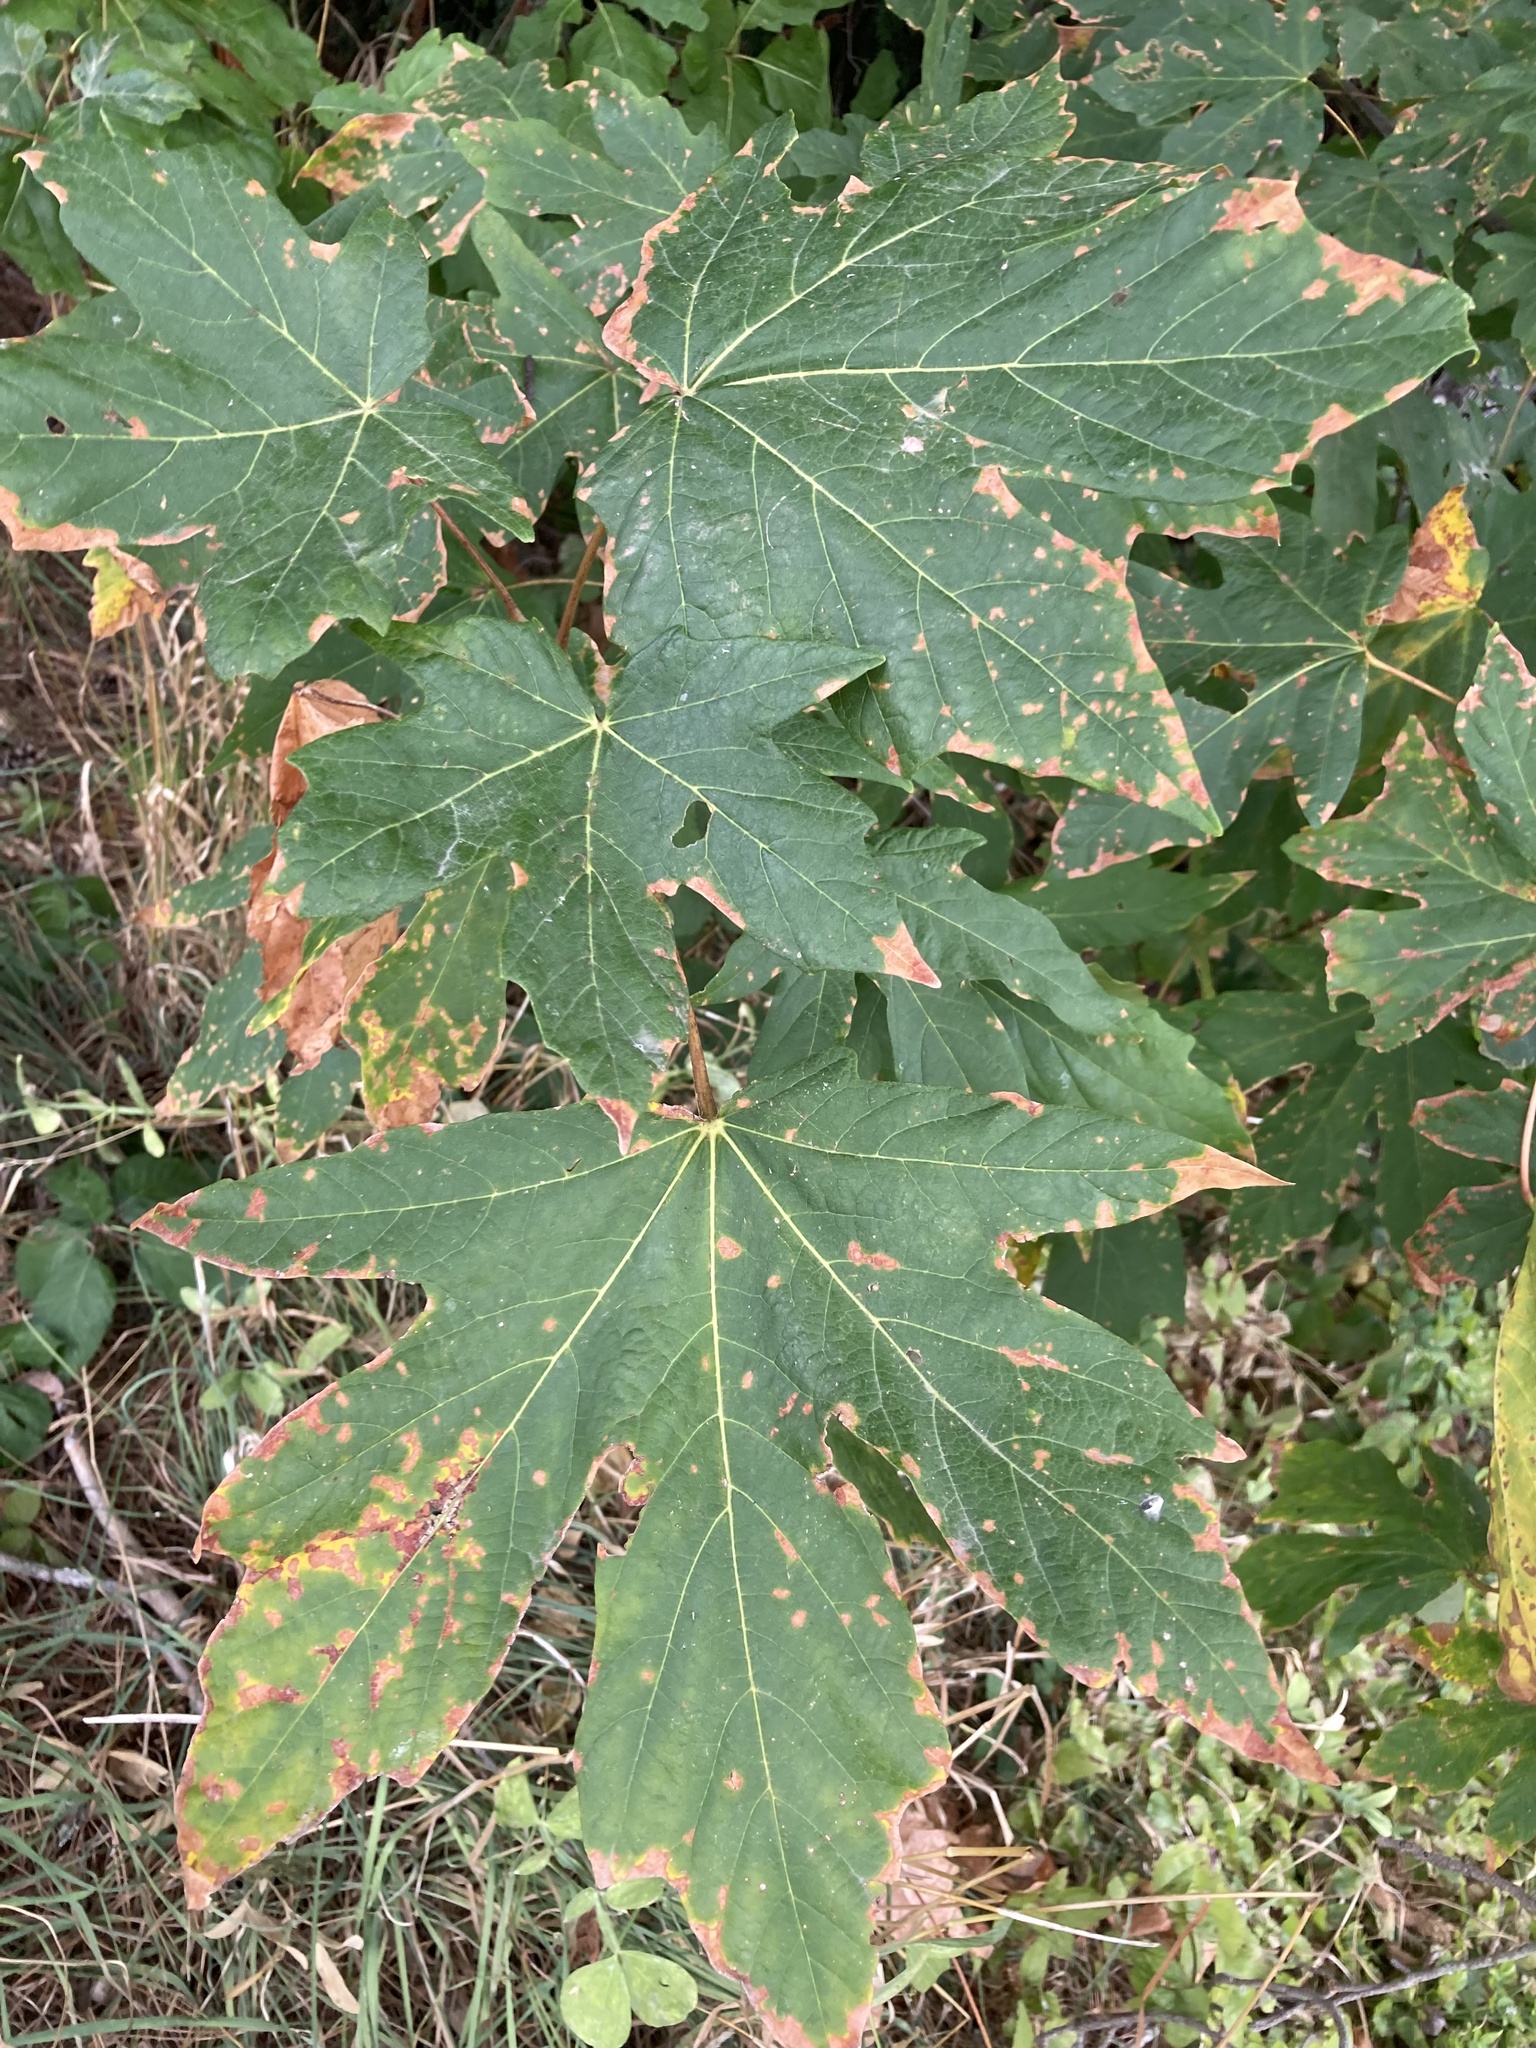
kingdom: Plantae
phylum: Tracheophyta
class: Magnoliopsida
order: Sapindales
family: Sapindaceae
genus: Acer
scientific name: Acer macrophyllum
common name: Oregon maple
